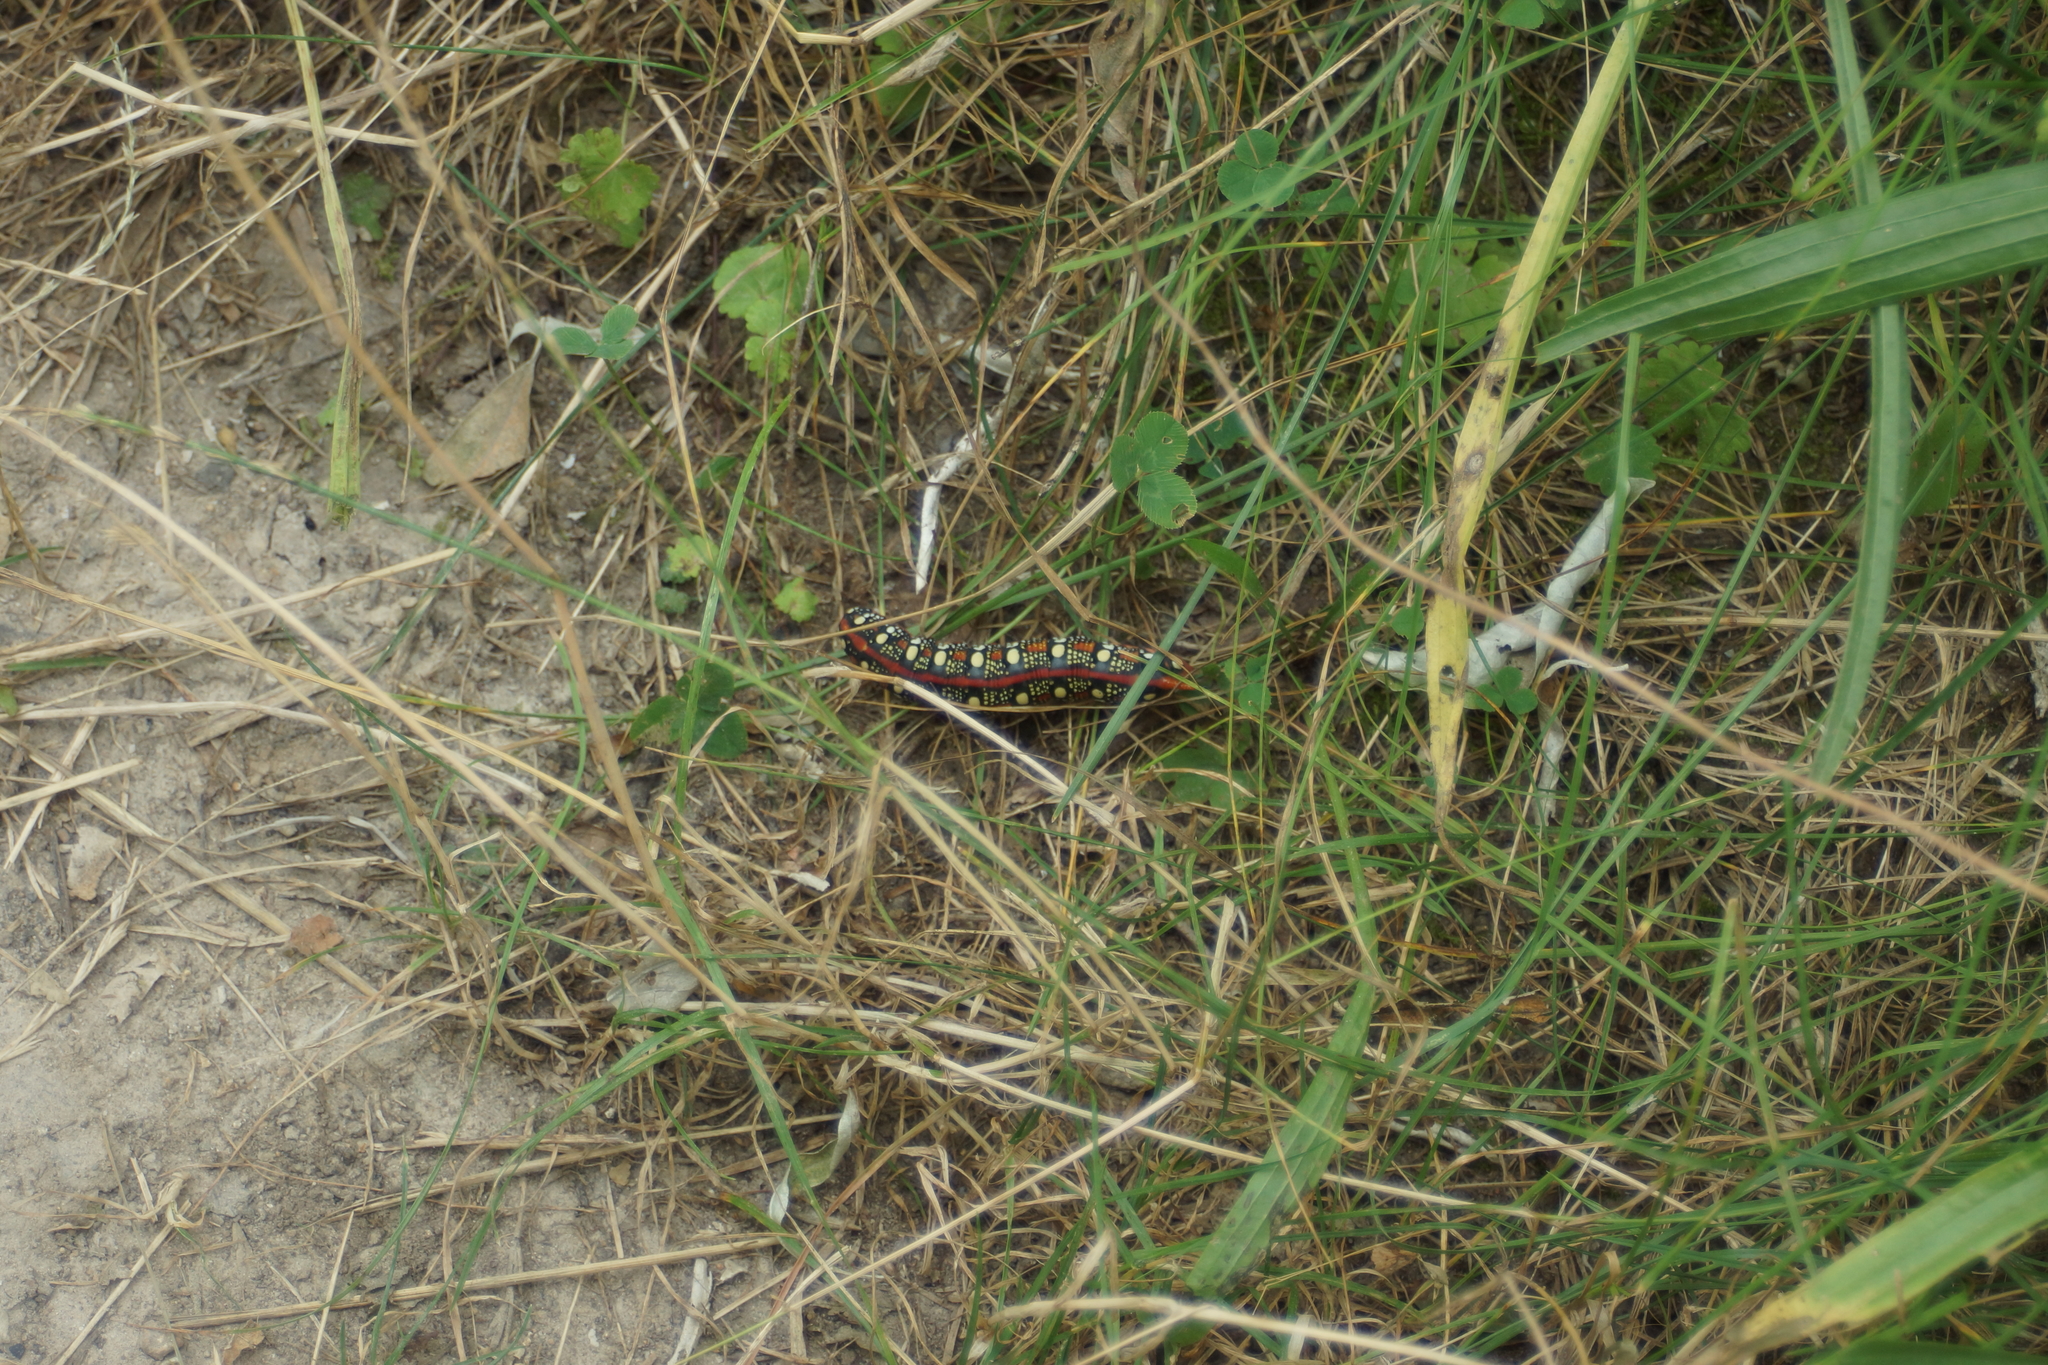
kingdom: Animalia
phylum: Arthropoda
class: Insecta
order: Lepidoptera
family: Sphingidae
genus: Hyles
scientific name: Hyles euphorbiae
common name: Spurge hawk-moth
